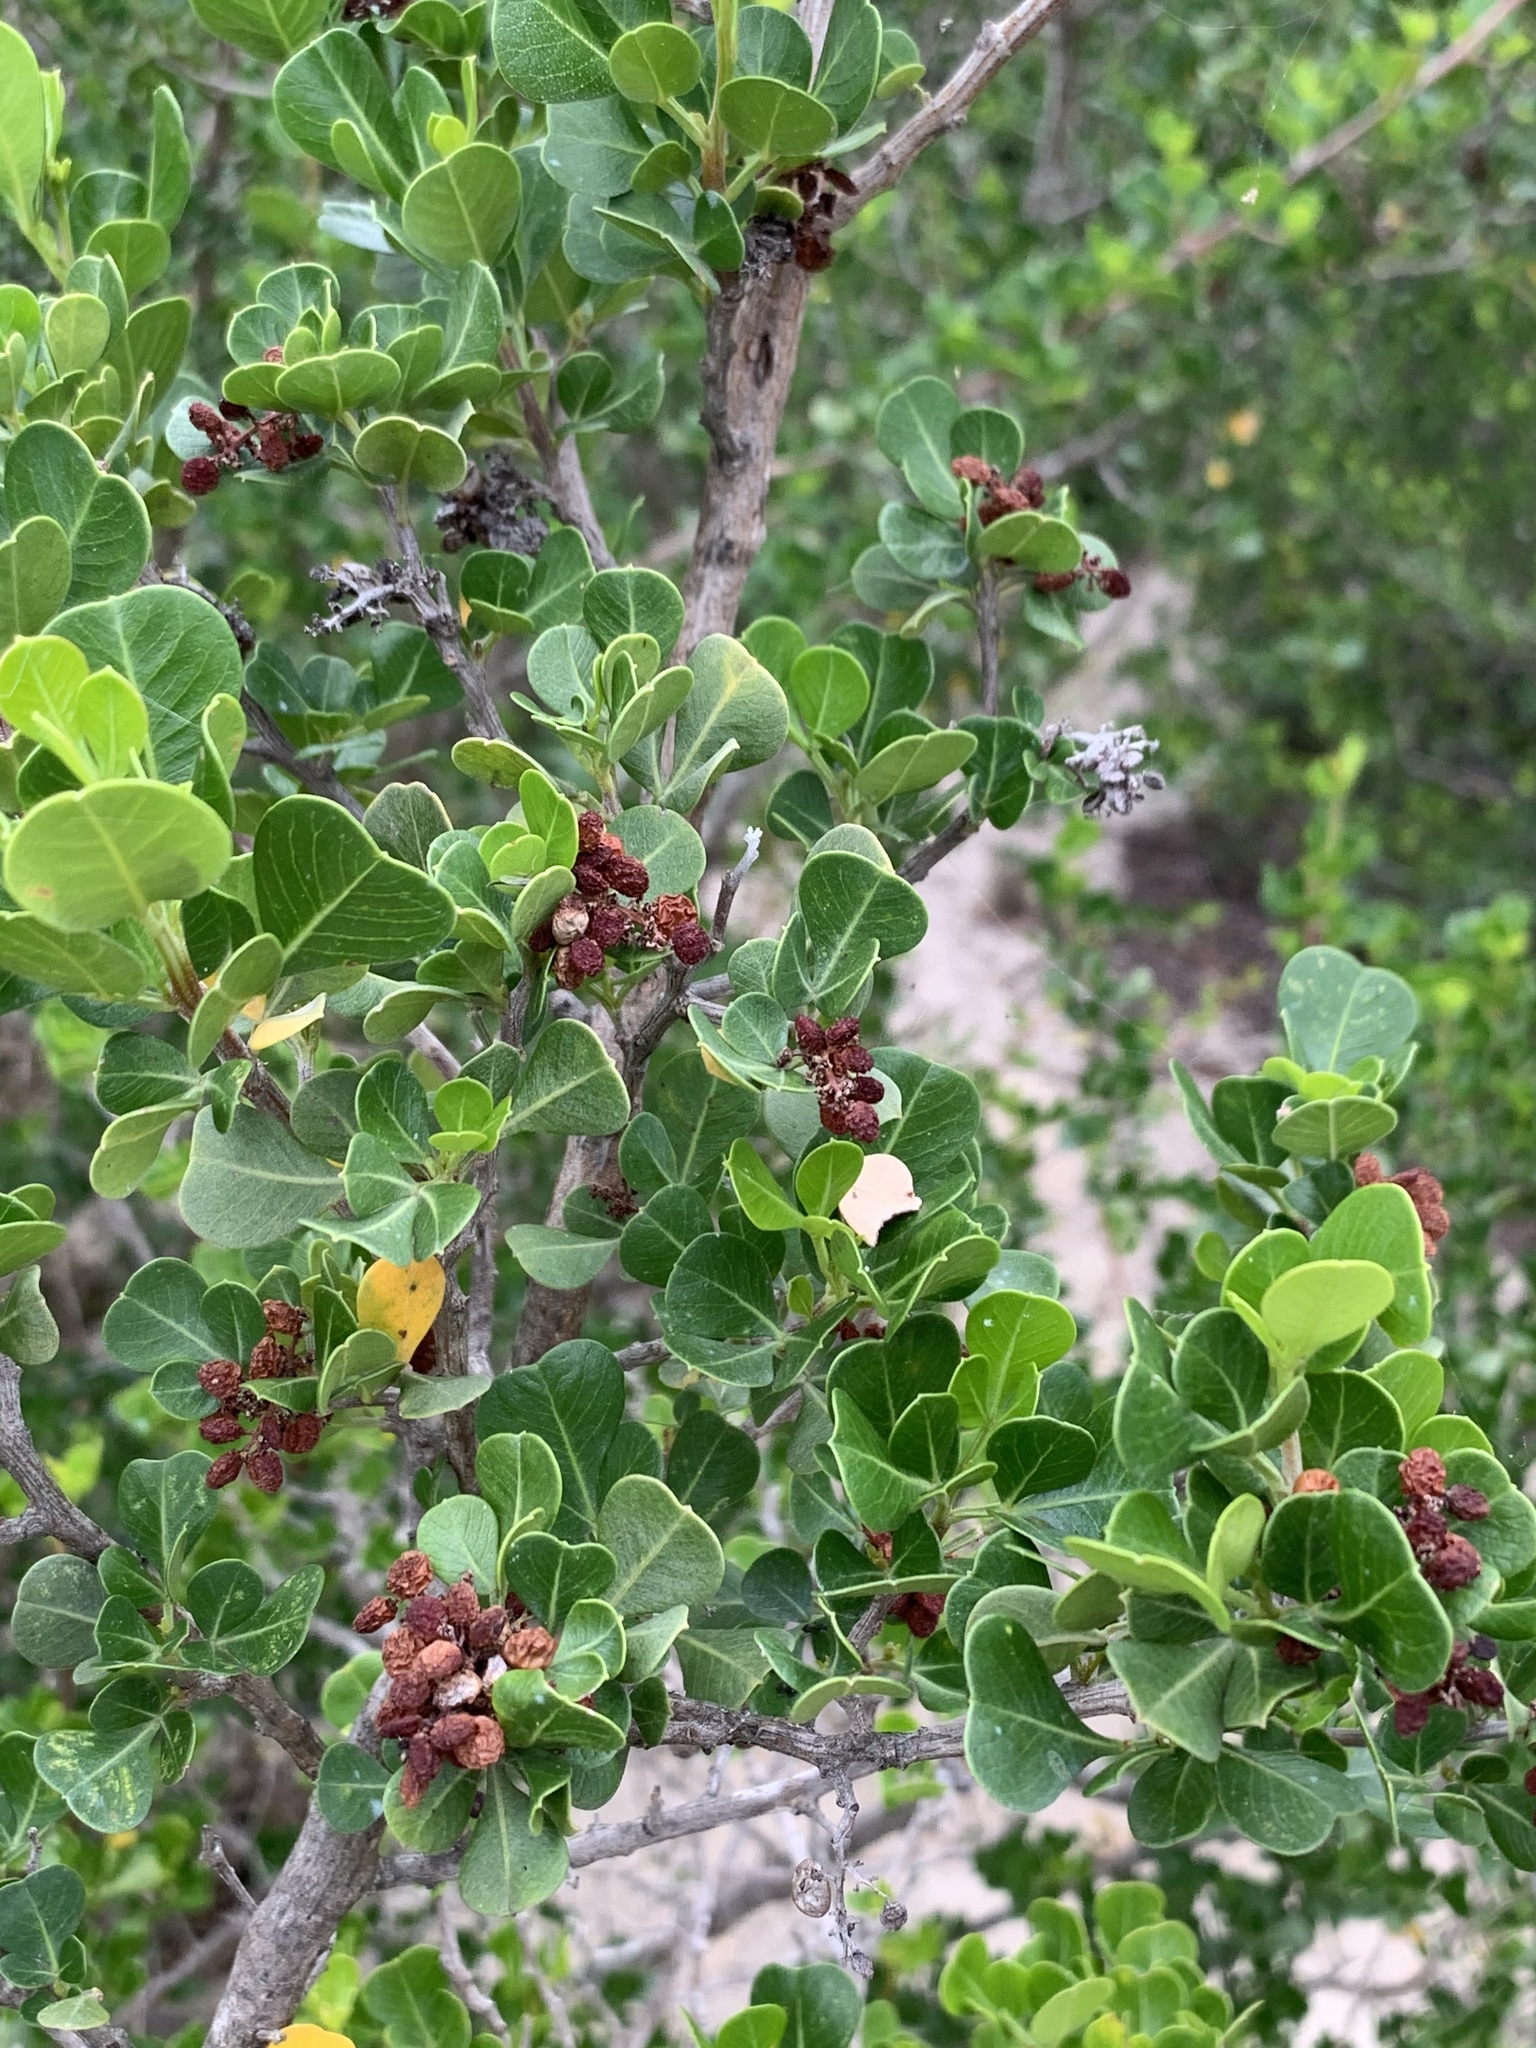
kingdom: Plantae
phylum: Tracheophyta
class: Magnoliopsida
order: Sapindales
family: Anacardiaceae
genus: Searsia
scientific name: Searsia glauca
